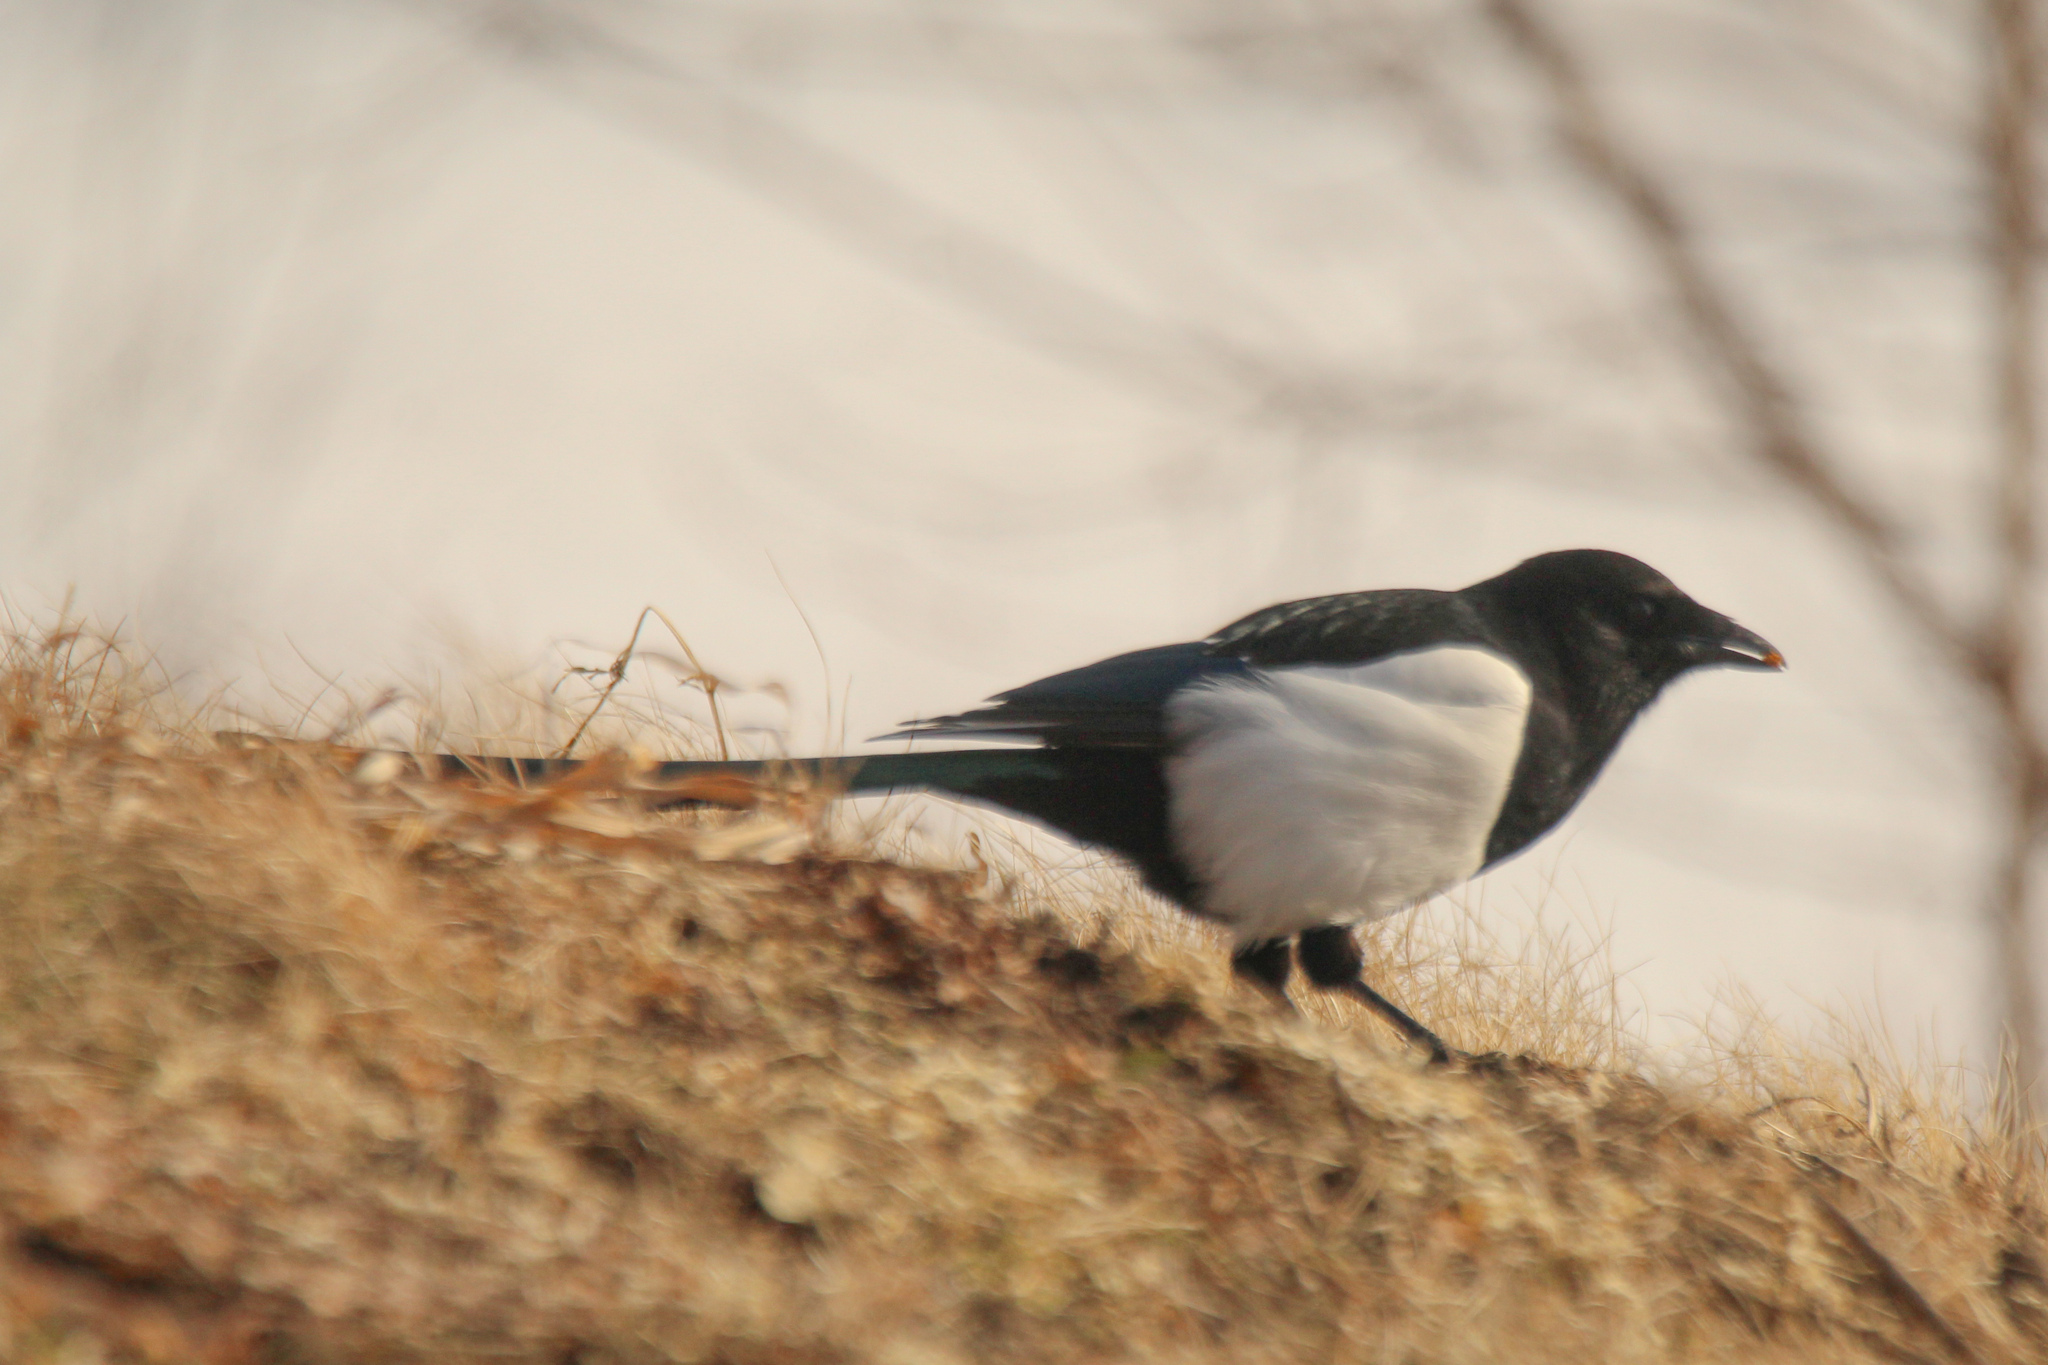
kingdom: Animalia
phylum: Chordata
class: Aves
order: Passeriformes
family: Corvidae
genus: Pica
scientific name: Pica pica
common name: Eurasian magpie
